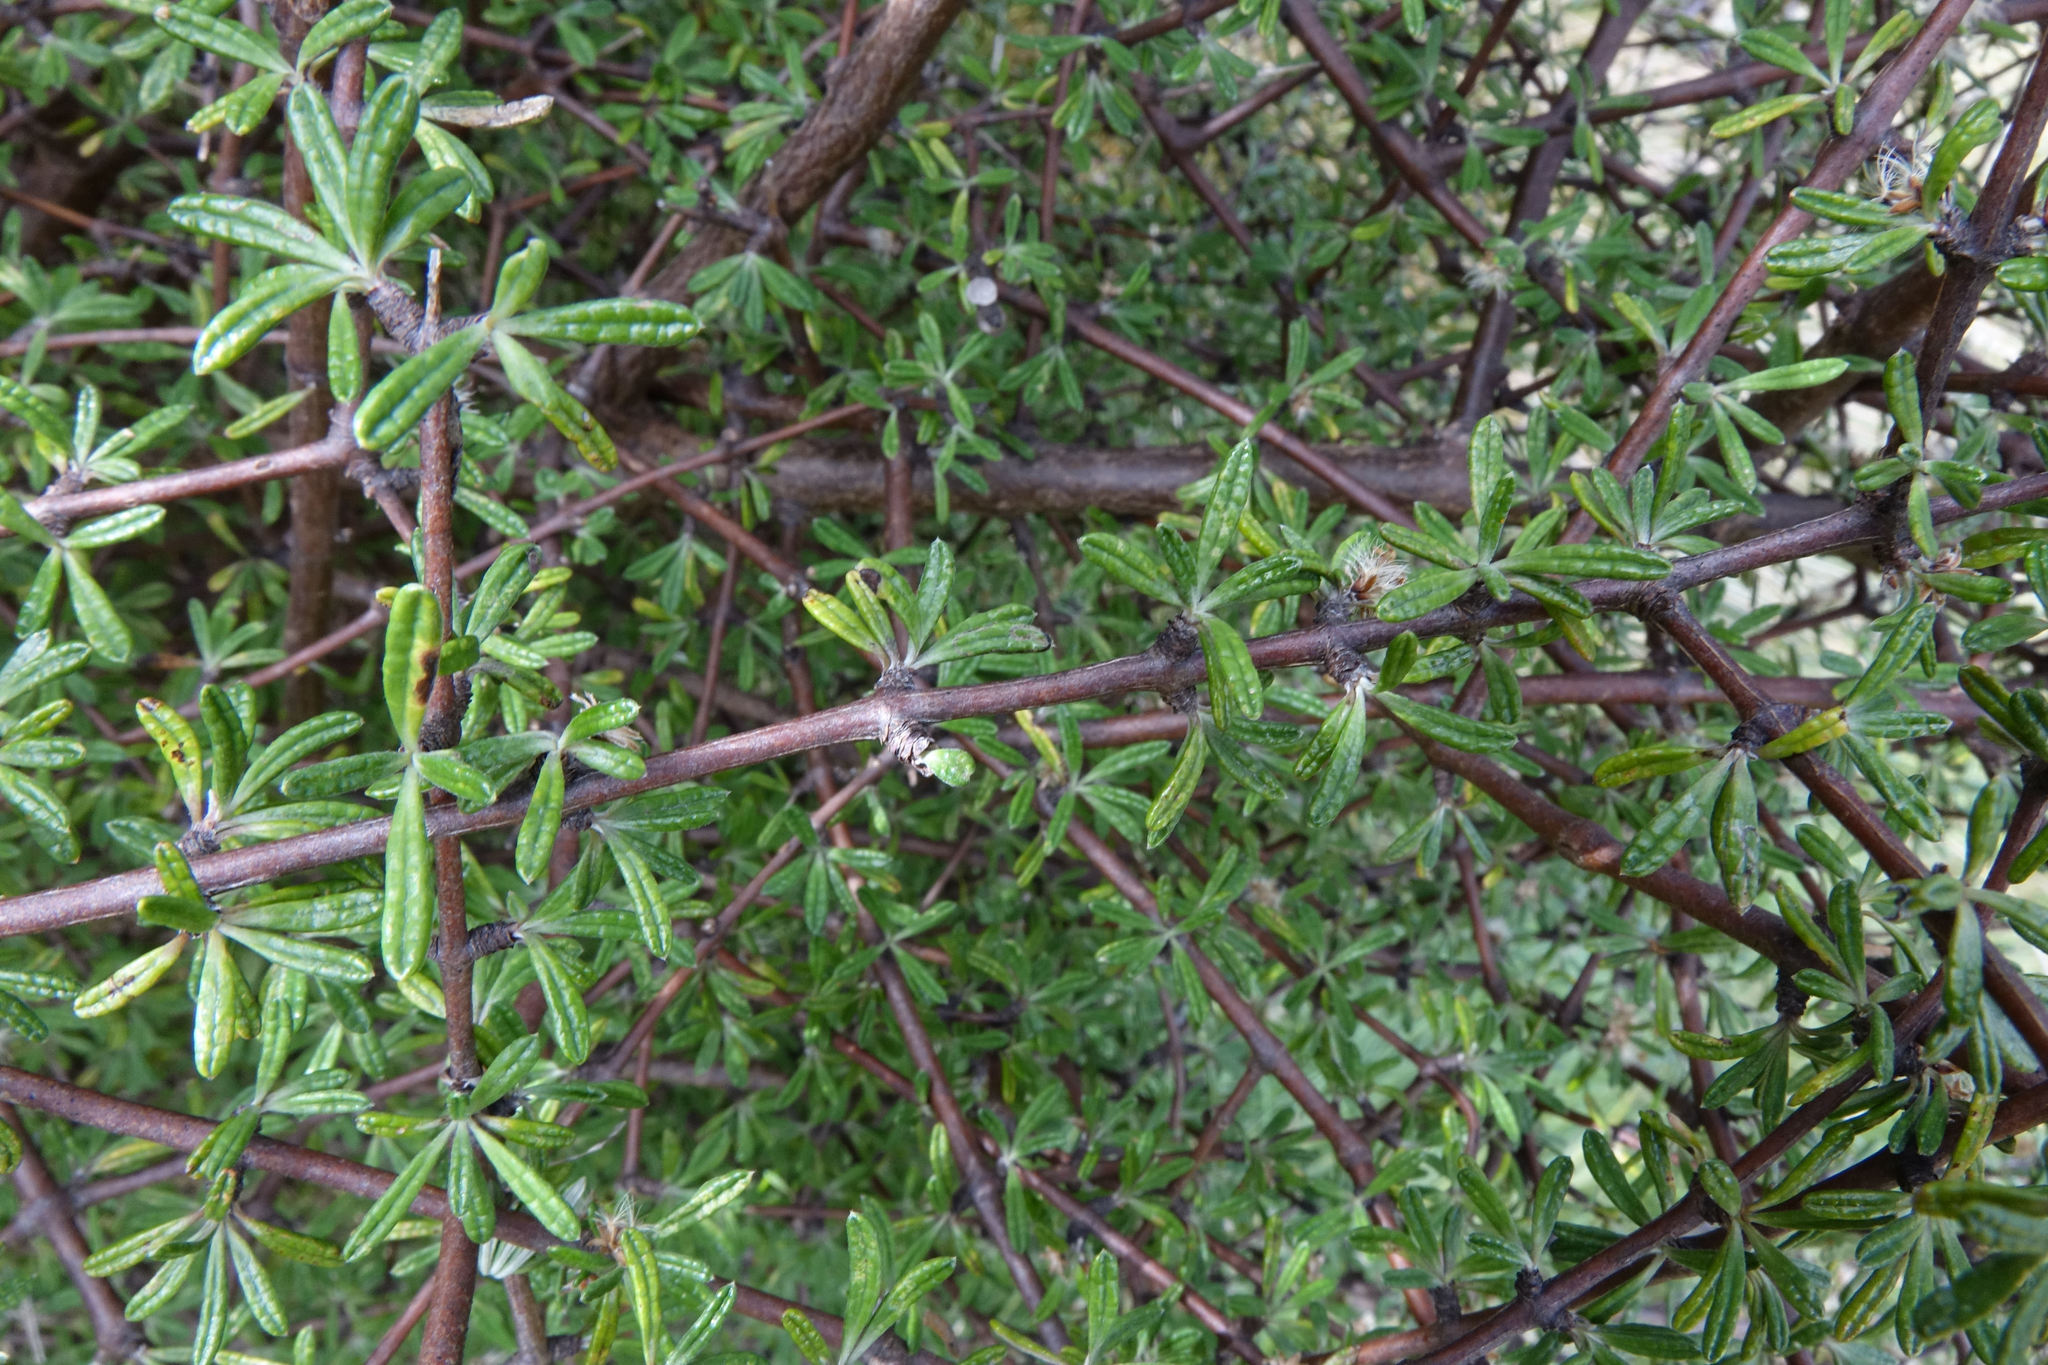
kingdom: Plantae
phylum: Tracheophyta
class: Magnoliopsida
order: Asterales
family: Asteraceae
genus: Olearia
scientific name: Olearia bullata
